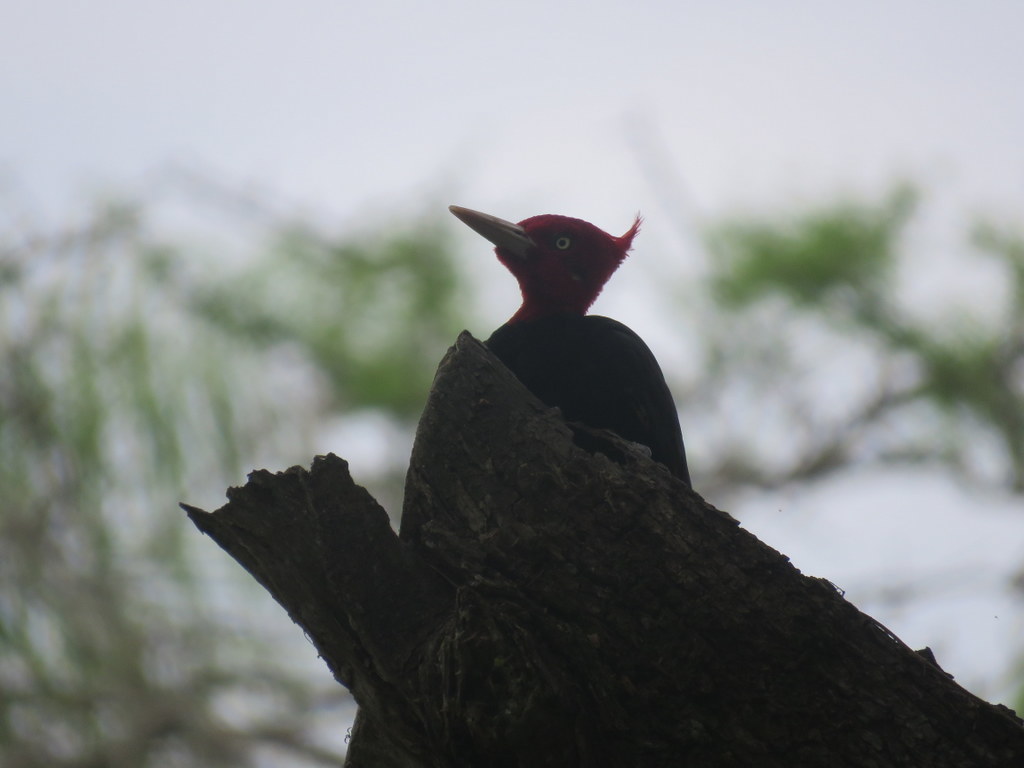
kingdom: Animalia
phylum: Chordata
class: Aves
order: Piciformes
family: Picidae
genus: Campephilus
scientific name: Campephilus leucopogon
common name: Cream-backed woodpecker
